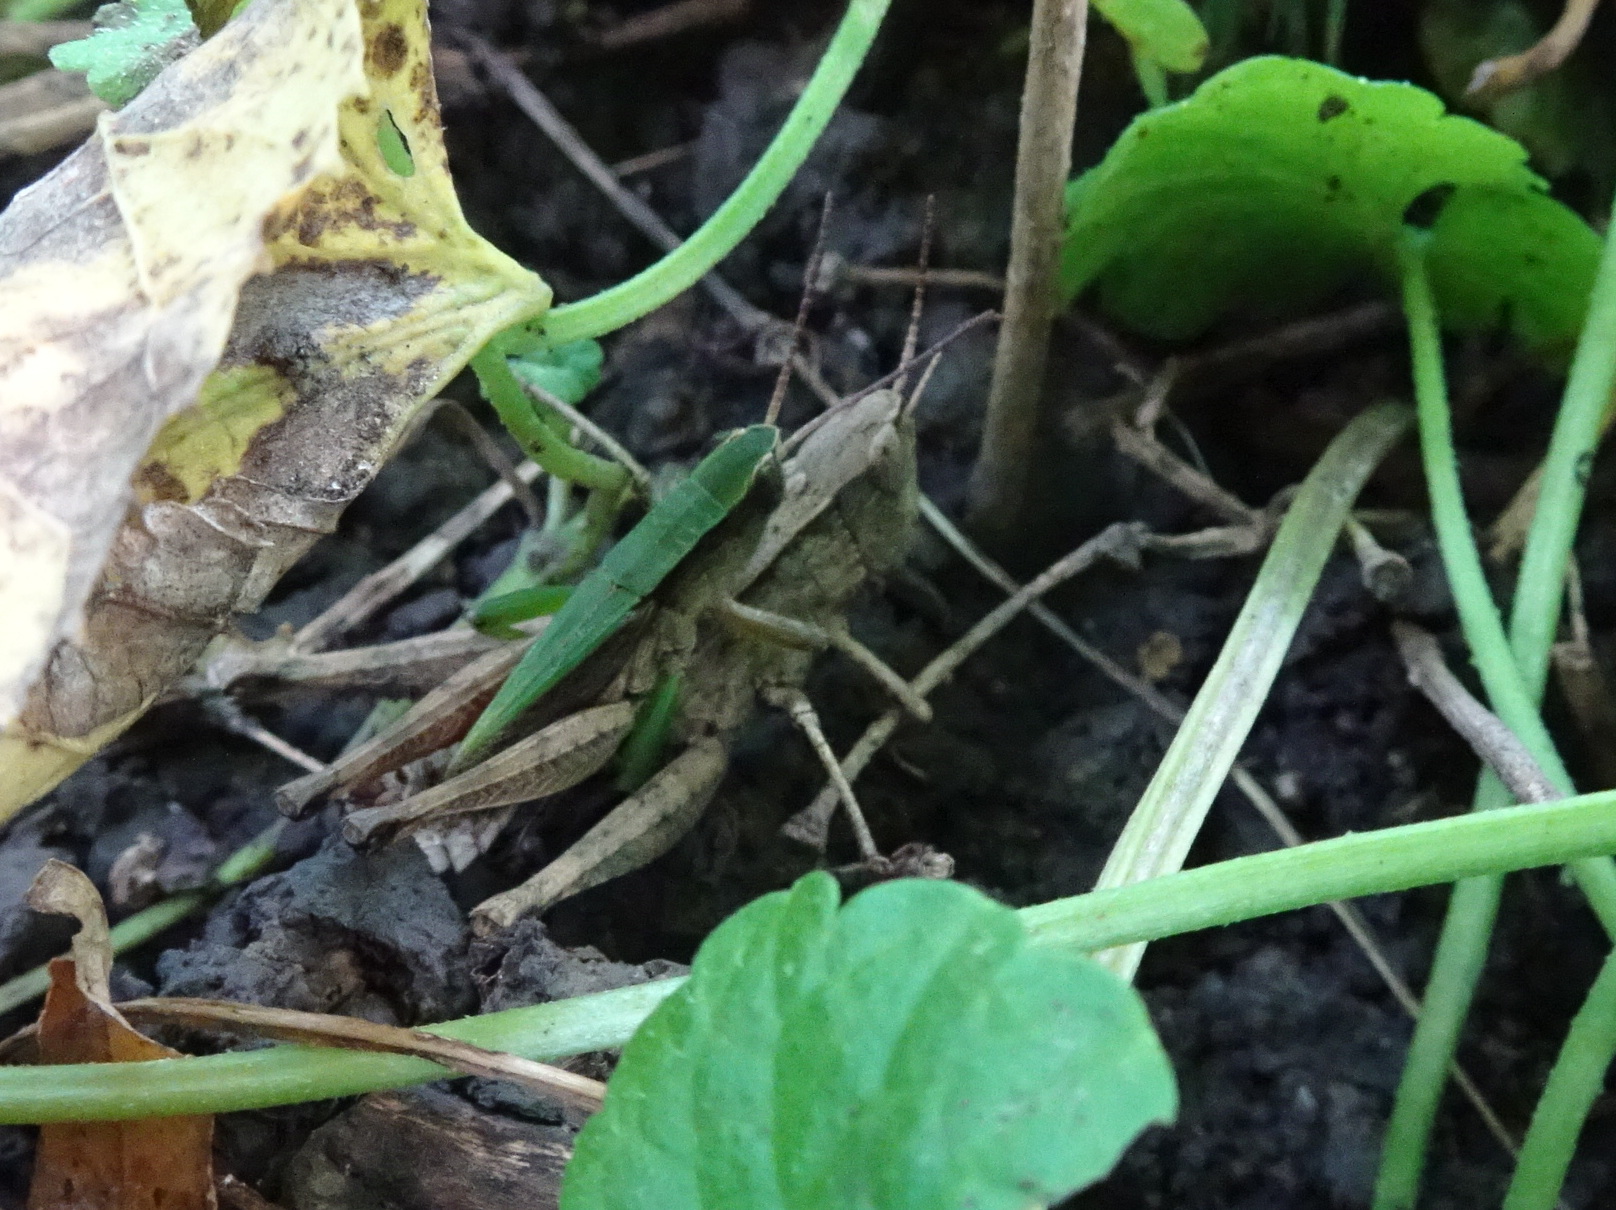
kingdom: Animalia
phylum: Arthropoda
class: Insecta
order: Orthoptera
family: Acrididae
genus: Dichromorpha
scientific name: Dichromorpha viridis
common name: Short-winged green grasshopper
